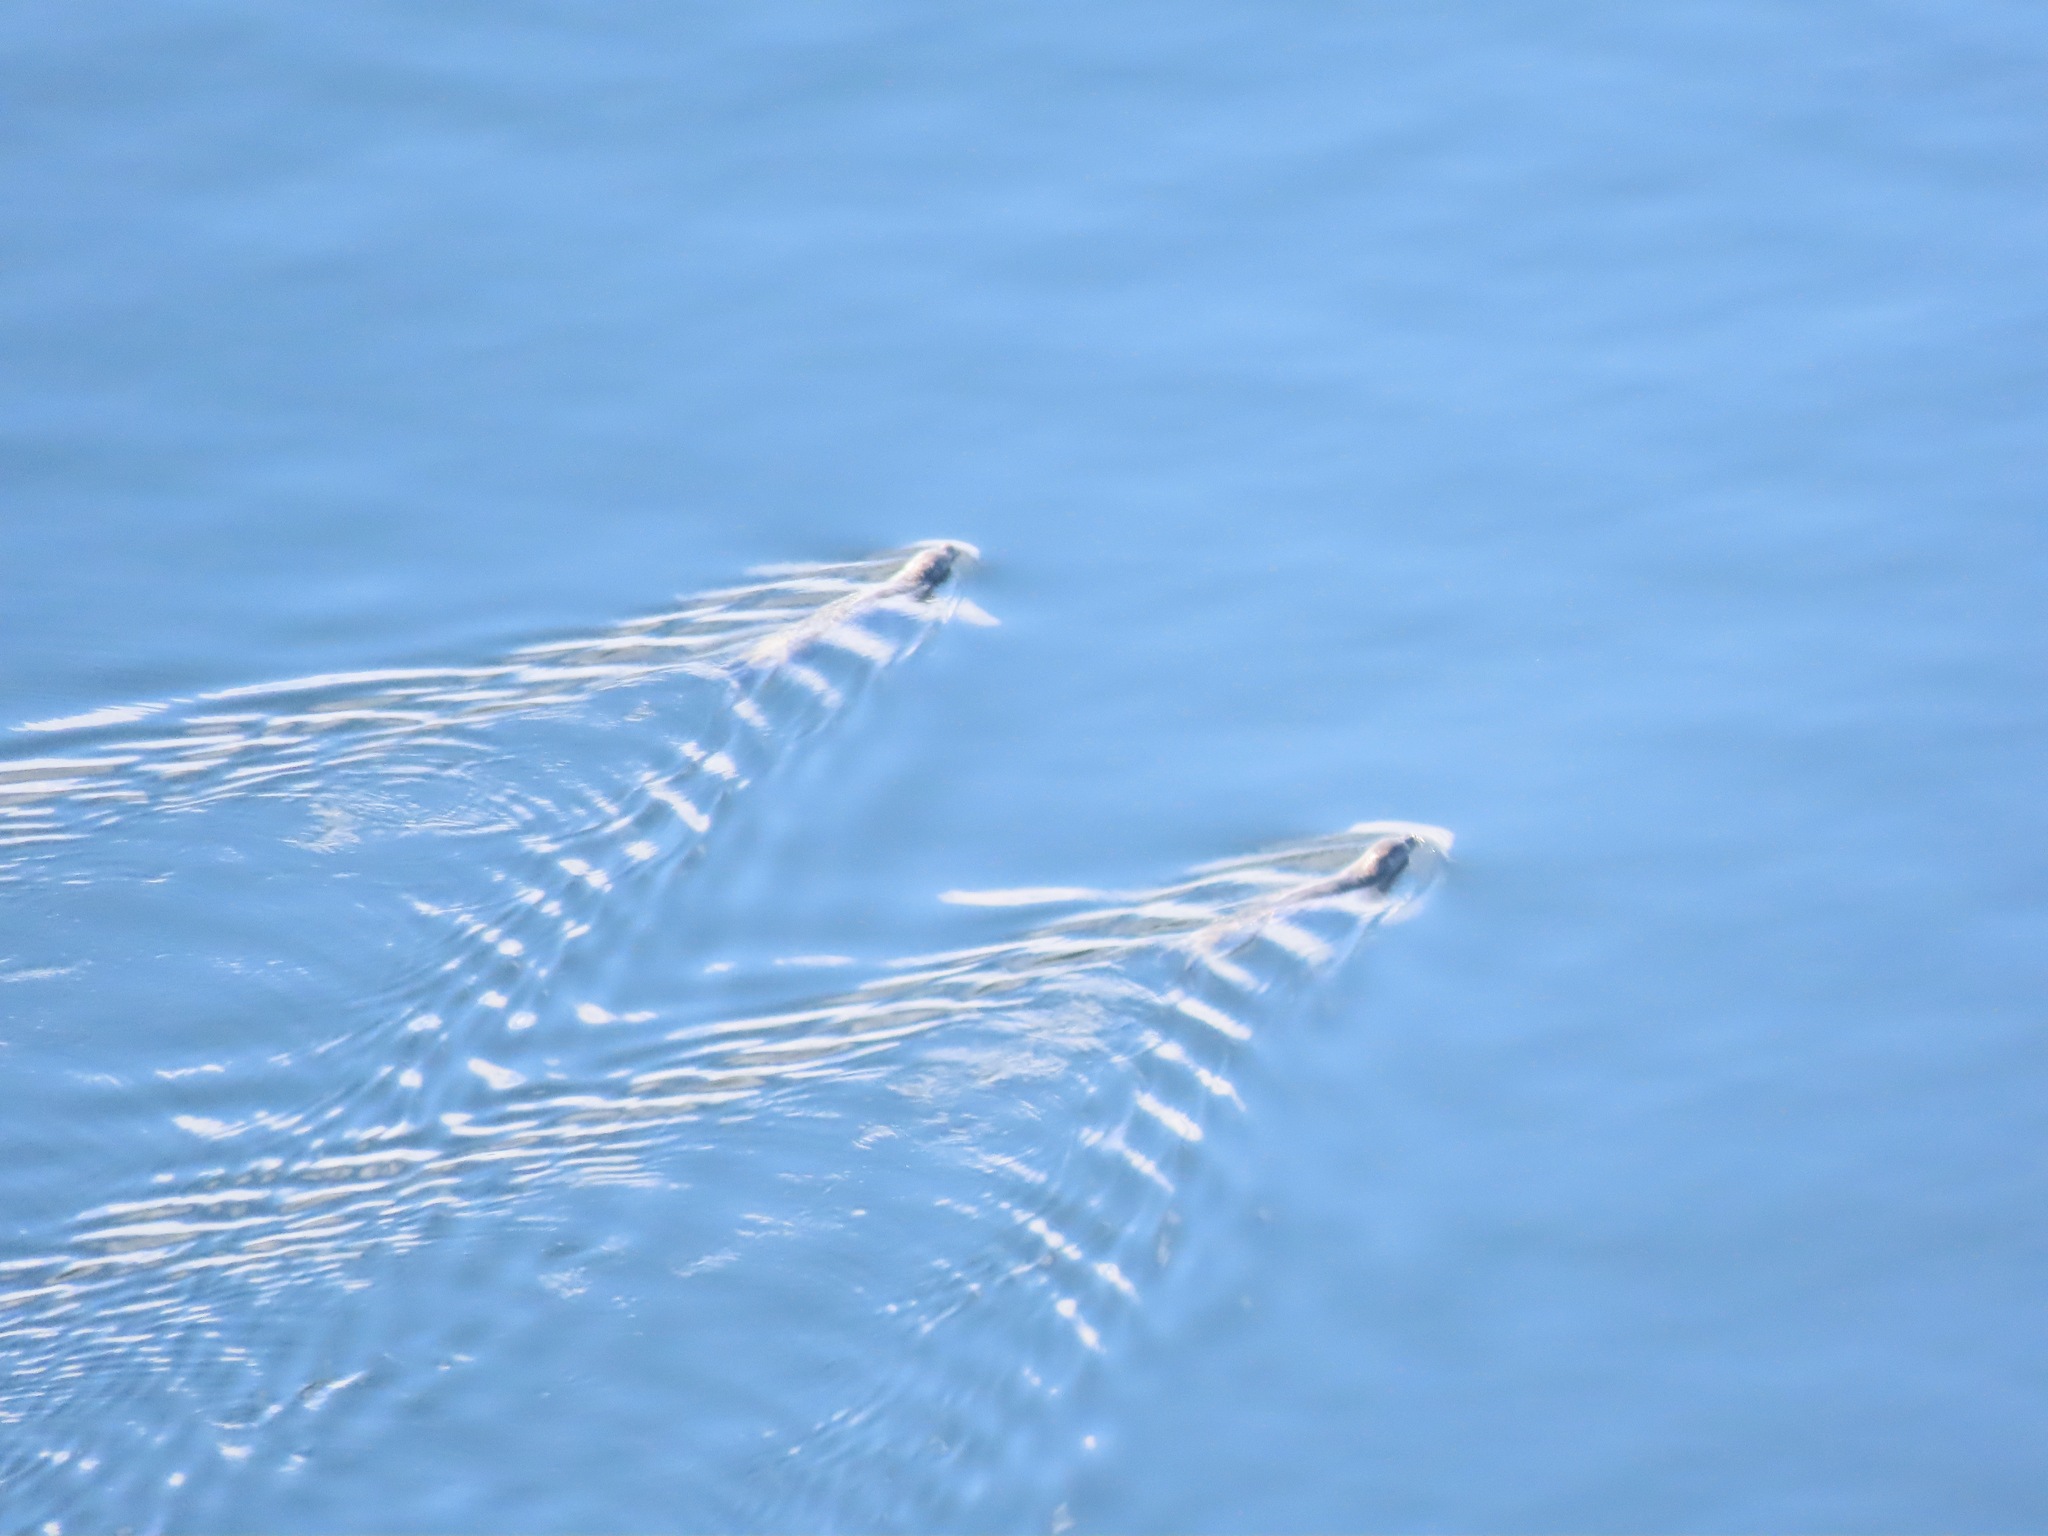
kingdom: Animalia
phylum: Chordata
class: Mammalia
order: Carnivora
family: Phocidae
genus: Phoca
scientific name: Phoca vitulina
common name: Harbor seal
